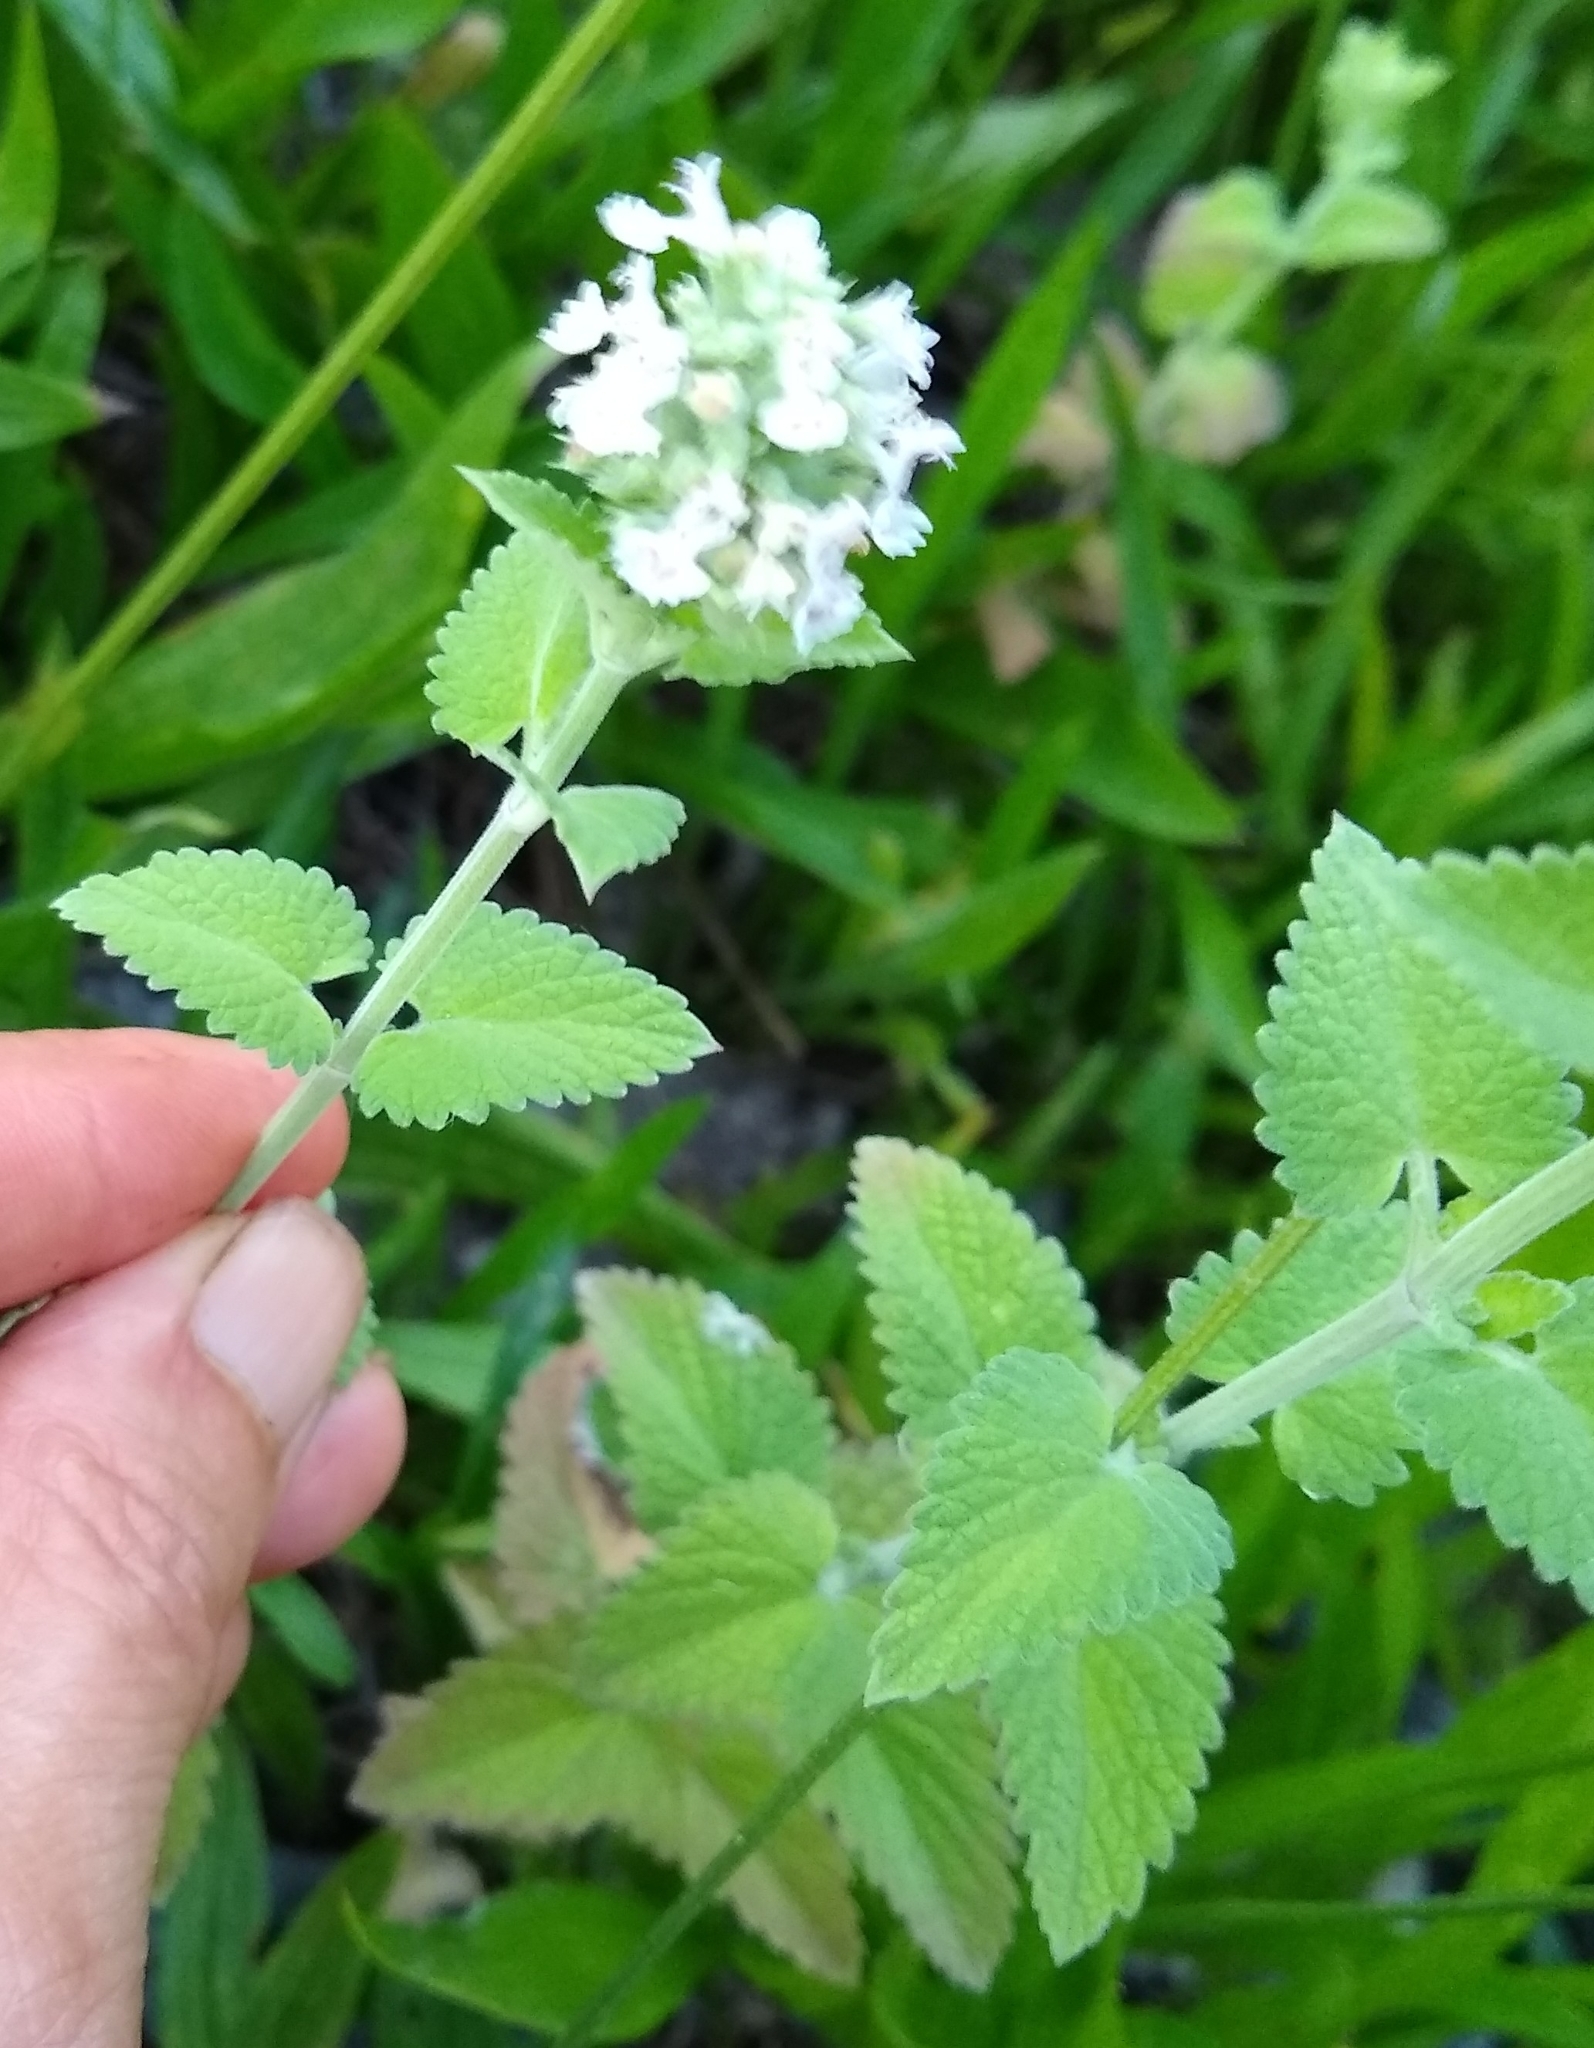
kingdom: Plantae
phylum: Tracheophyta
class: Magnoliopsida
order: Lamiales
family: Lamiaceae
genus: Nepeta
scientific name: Nepeta cataria
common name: Catnip
